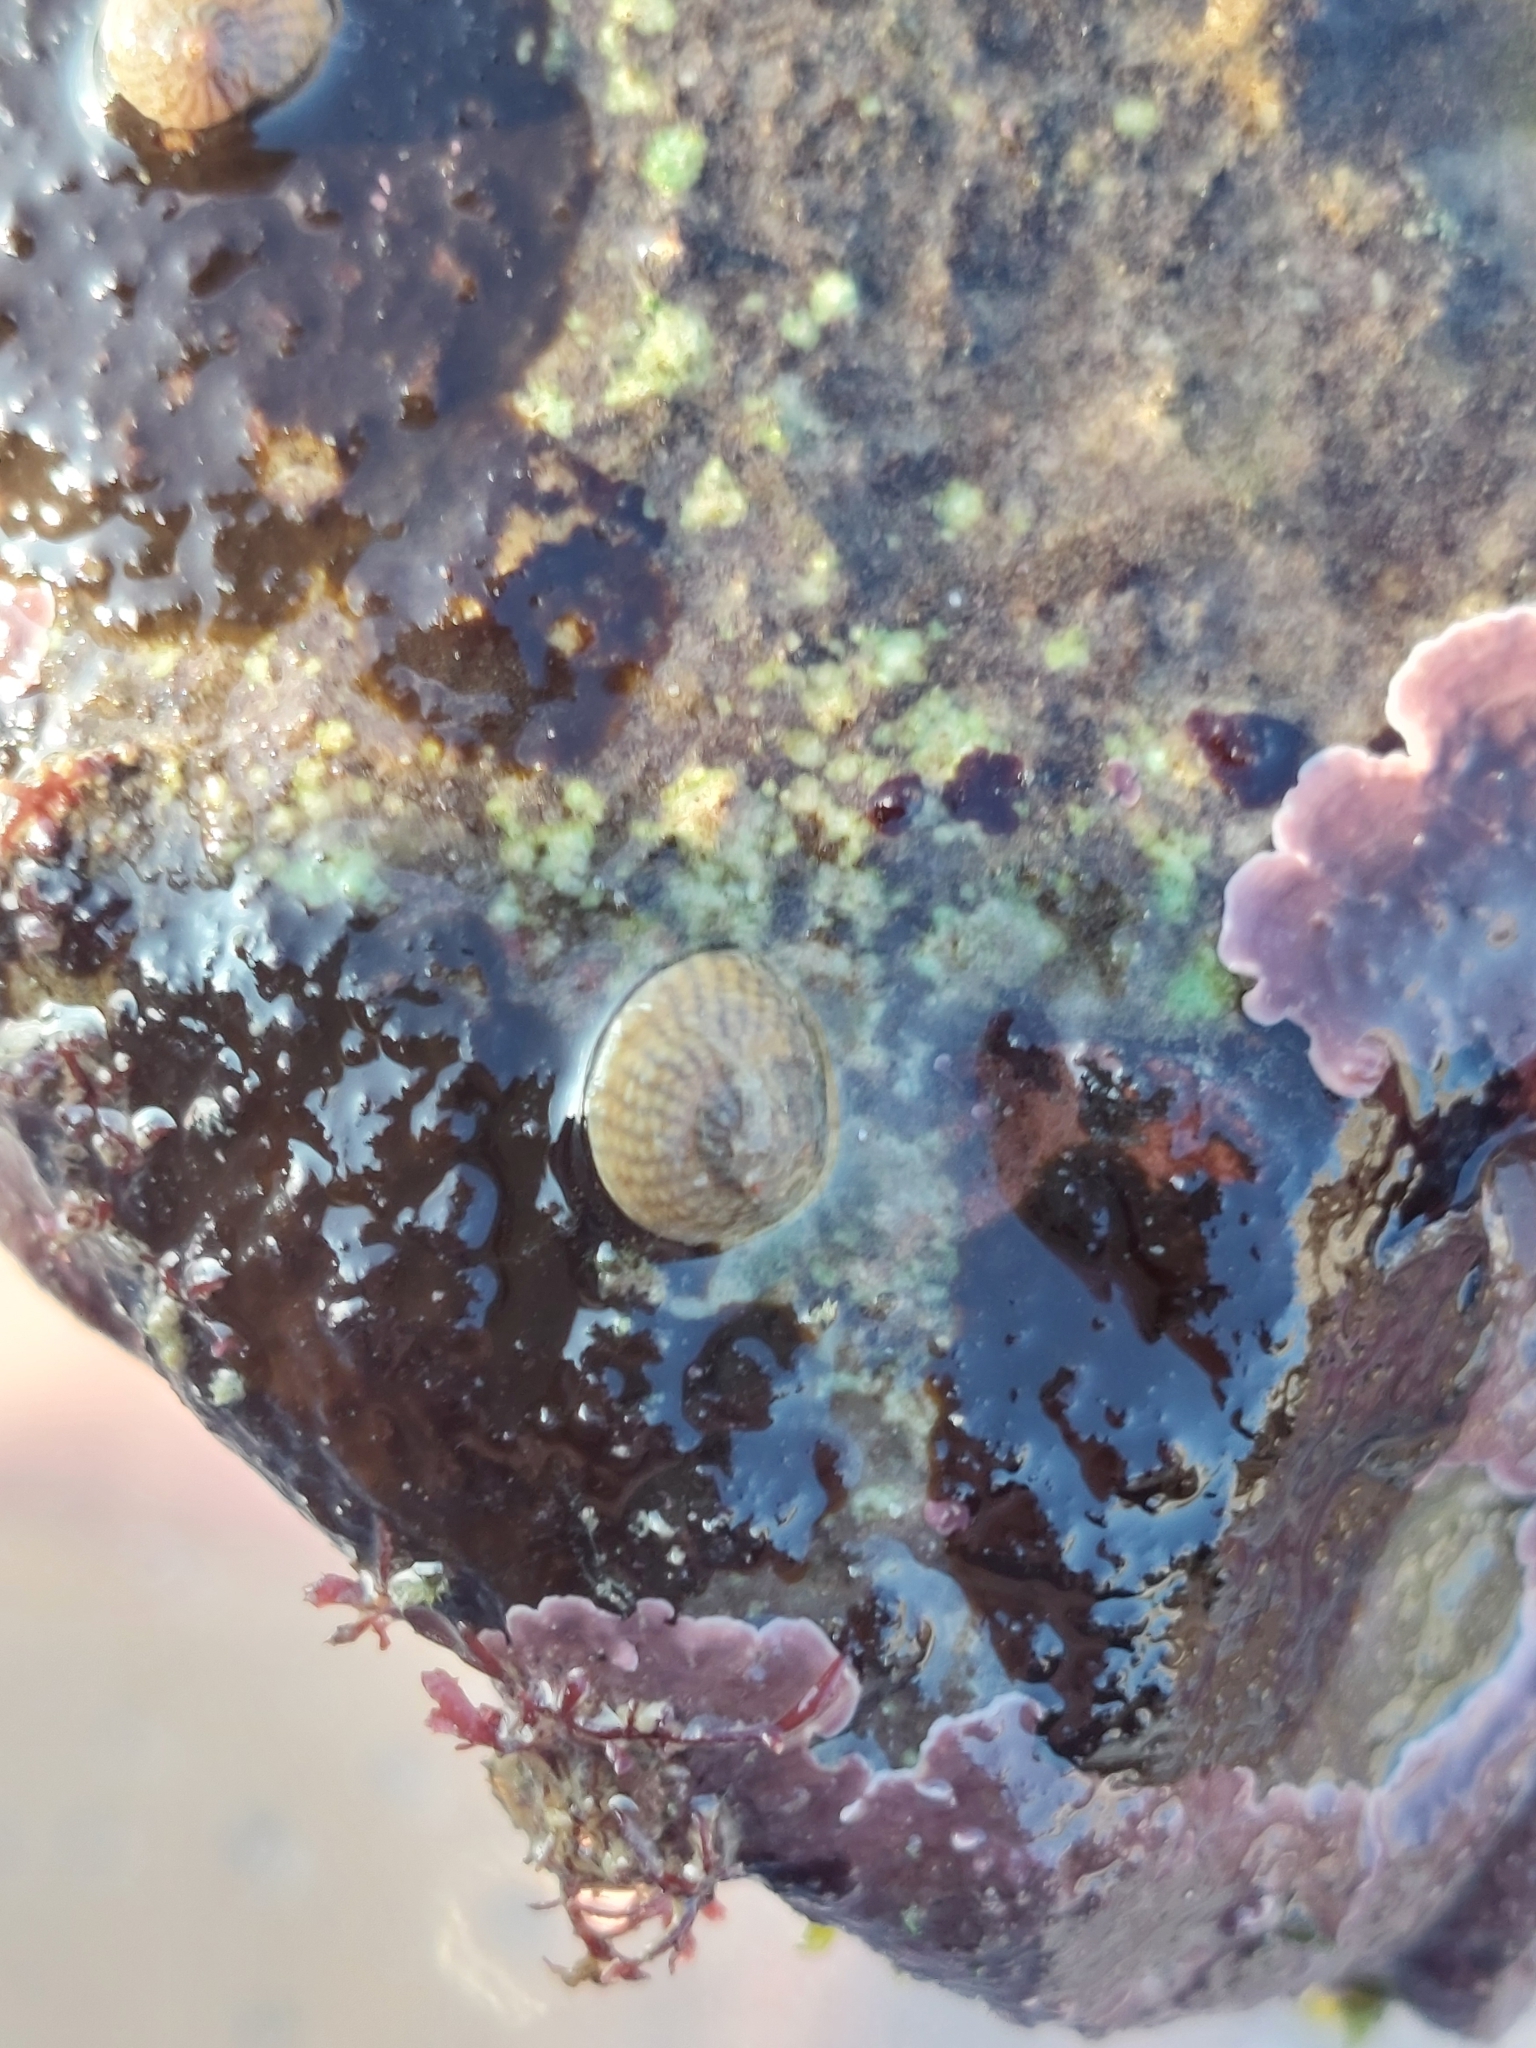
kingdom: Animalia
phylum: Mollusca
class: Gastropoda
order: Trochida
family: Trochidae
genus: Steromphala
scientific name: Steromphala cineraria
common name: Grey top shell
